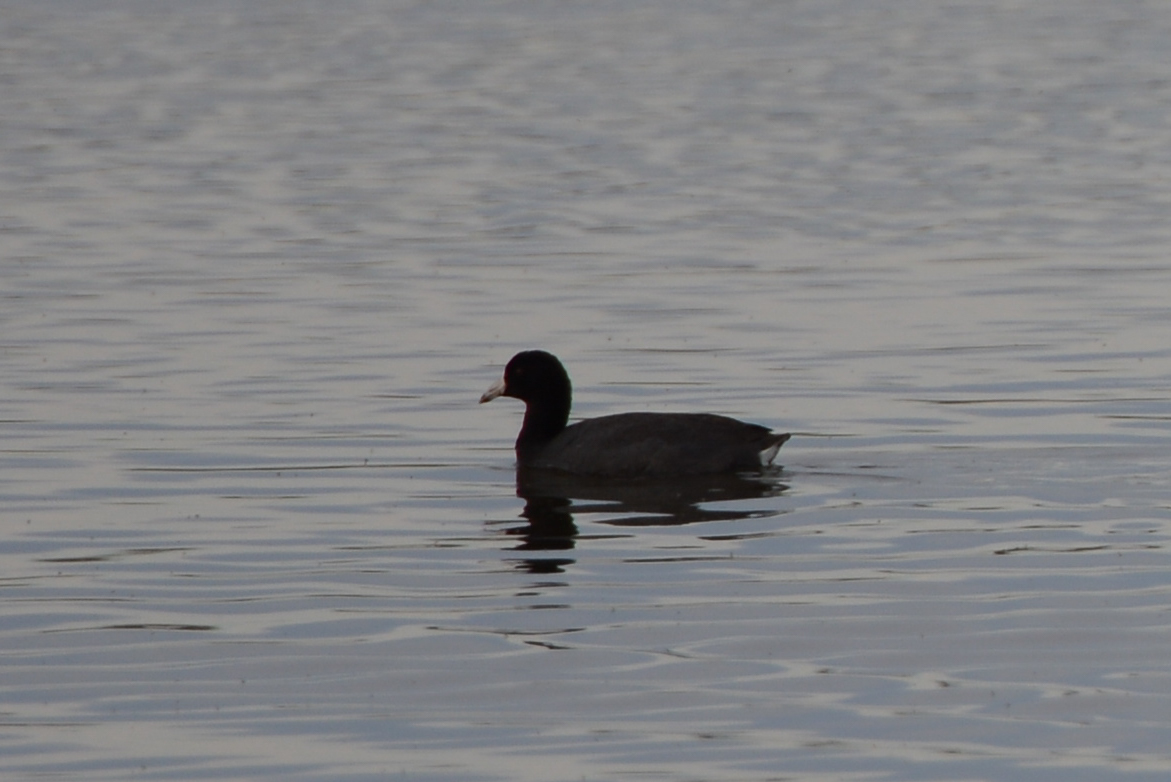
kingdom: Animalia
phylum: Chordata
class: Aves
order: Gruiformes
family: Rallidae
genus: Fulica
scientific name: Fulica americana
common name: American coot
